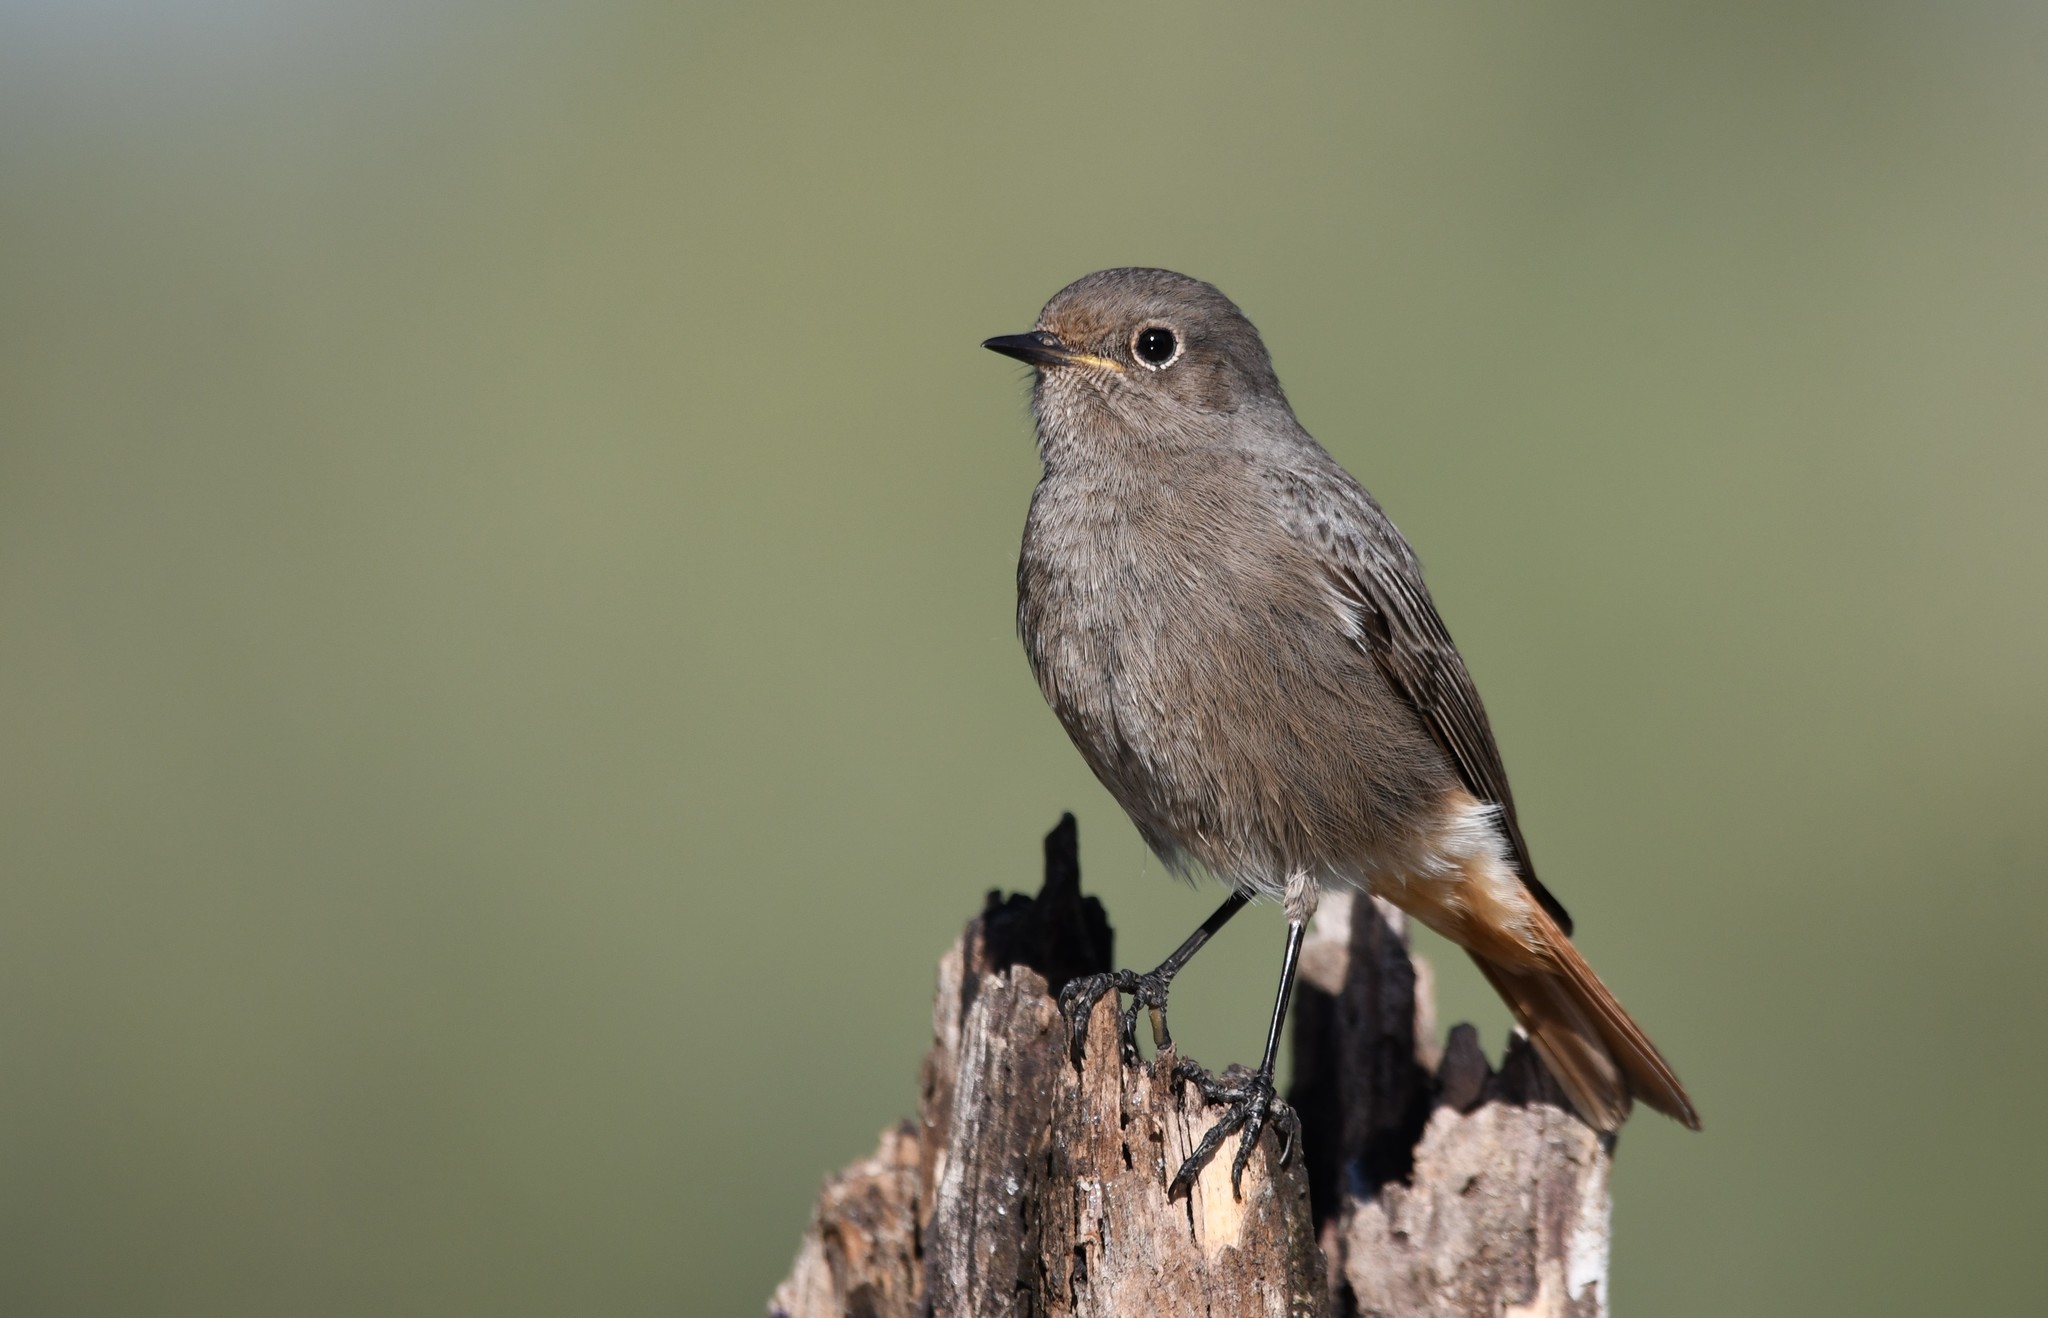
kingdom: Animalia
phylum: Chordata
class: Aves
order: Passeriformes
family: Muscicapidae
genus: Phoenicurus
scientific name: Phoenicurus ochruros
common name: Black redstart
